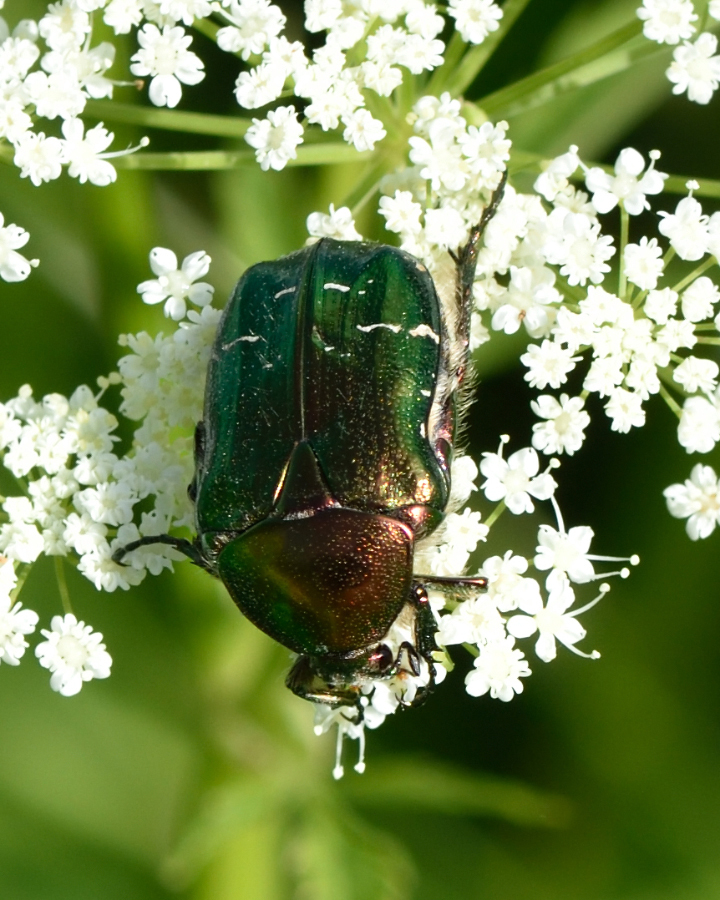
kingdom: Animalia
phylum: Arthropoda
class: Insecta
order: Coleoptera
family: Scarabaeidae
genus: Cetonia
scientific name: Cetonia aurata
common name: Rose chafer
